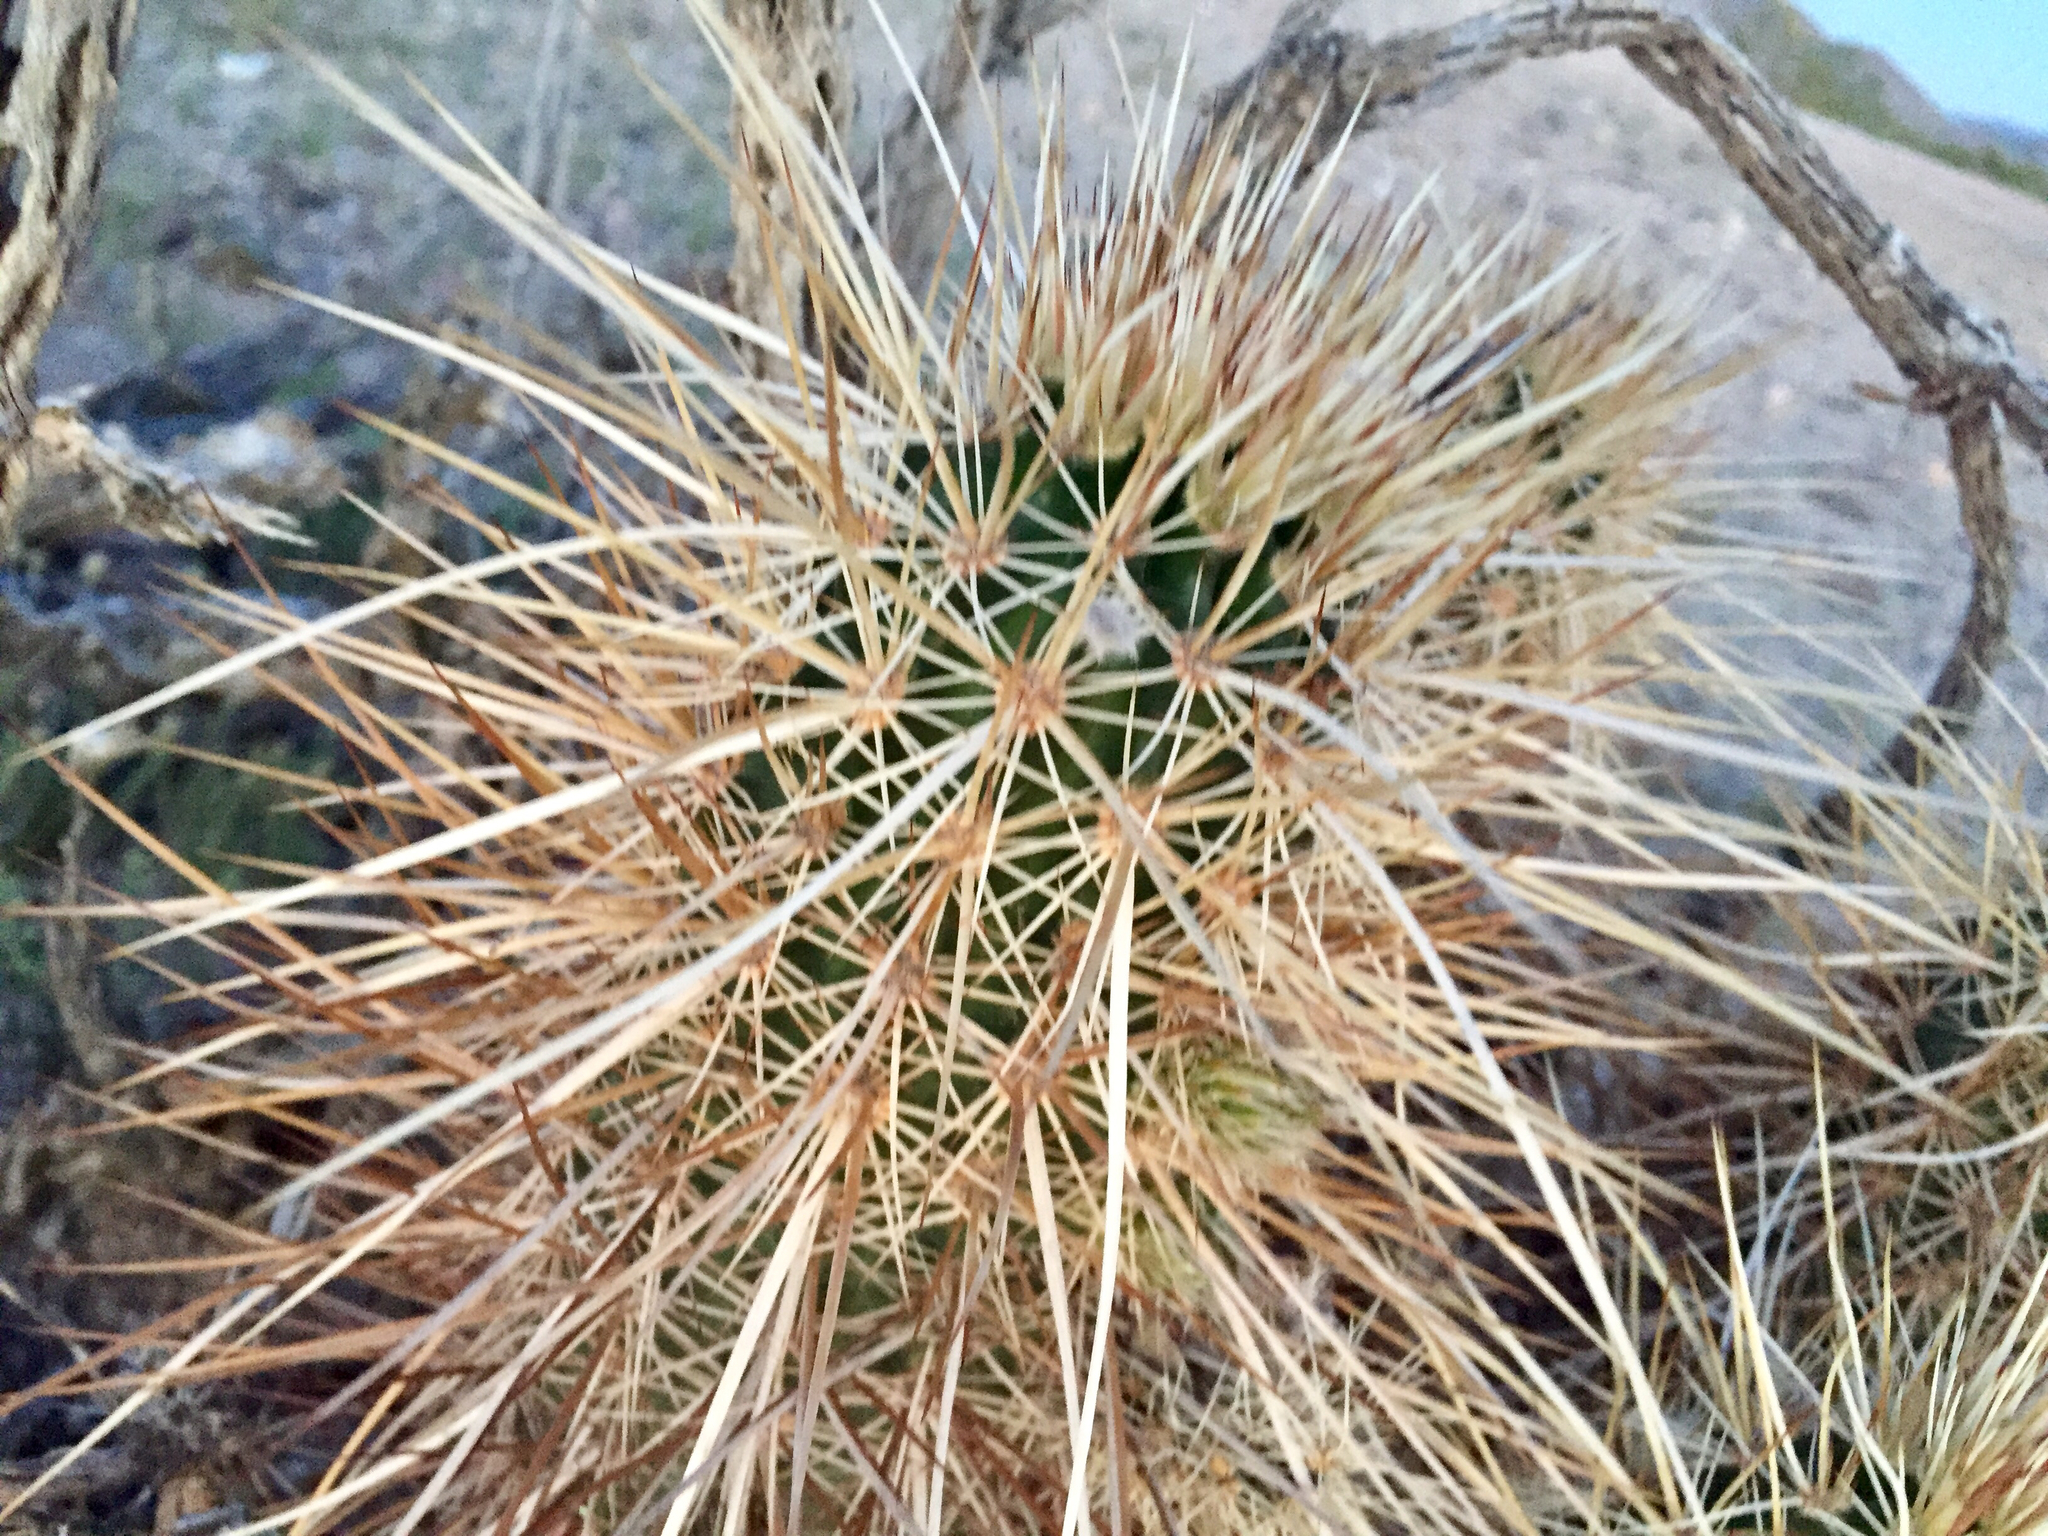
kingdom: Plantae
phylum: Tracheophyta
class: Magnoliopsida
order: Caryophyllales
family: Cactaceae
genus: Echinocereus
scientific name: Echinocereus engelmannii
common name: Engelmann's hedgehog cactus
